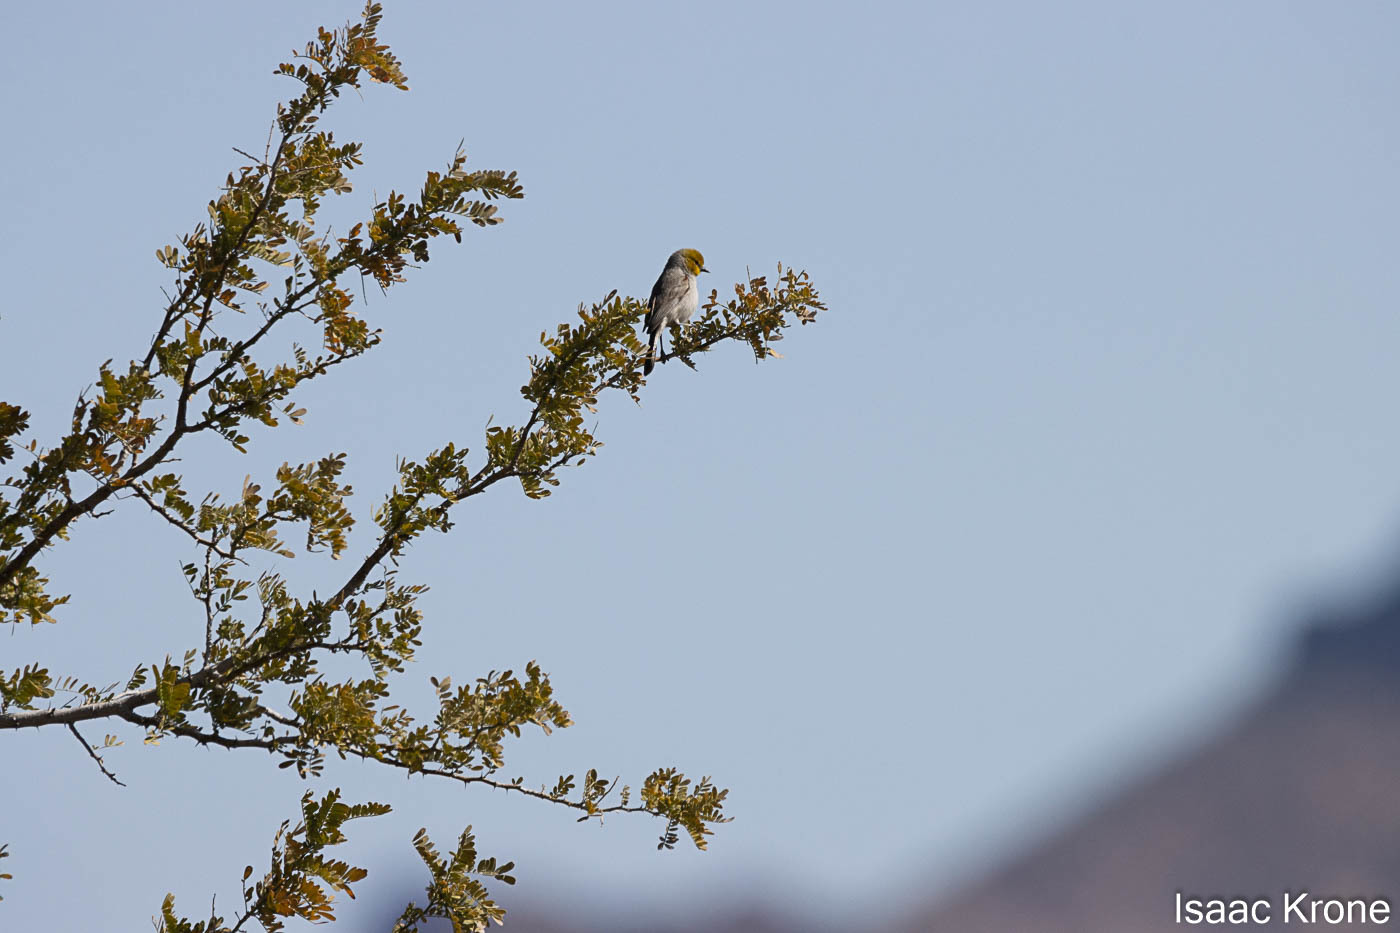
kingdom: Animalia
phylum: Chordata
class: Aves
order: Passeriformes
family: Remizidae
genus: Auriparus
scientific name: Auriparus flaviceps
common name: Verdin
